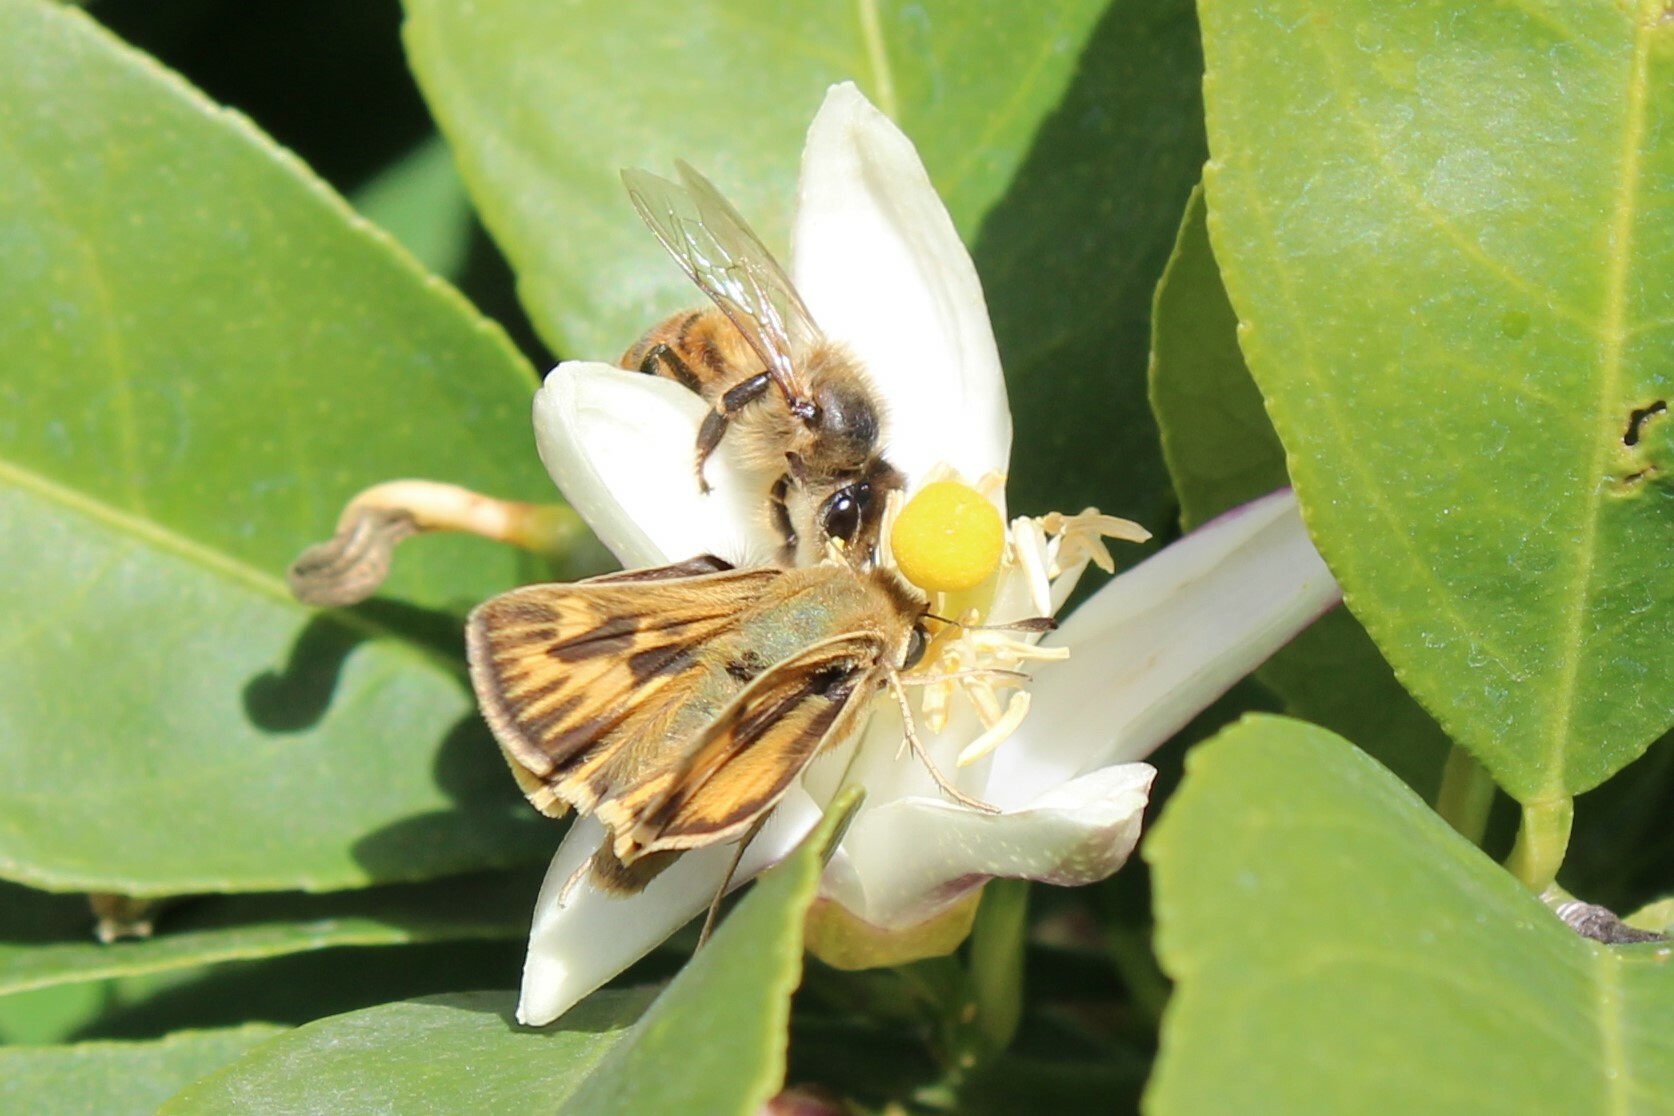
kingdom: Animalia
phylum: Arthropoda
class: Insecta
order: Lepidoptera
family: Hesperiidae
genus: Hylephila
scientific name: Hylephila phyleus
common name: Fiery skipper
